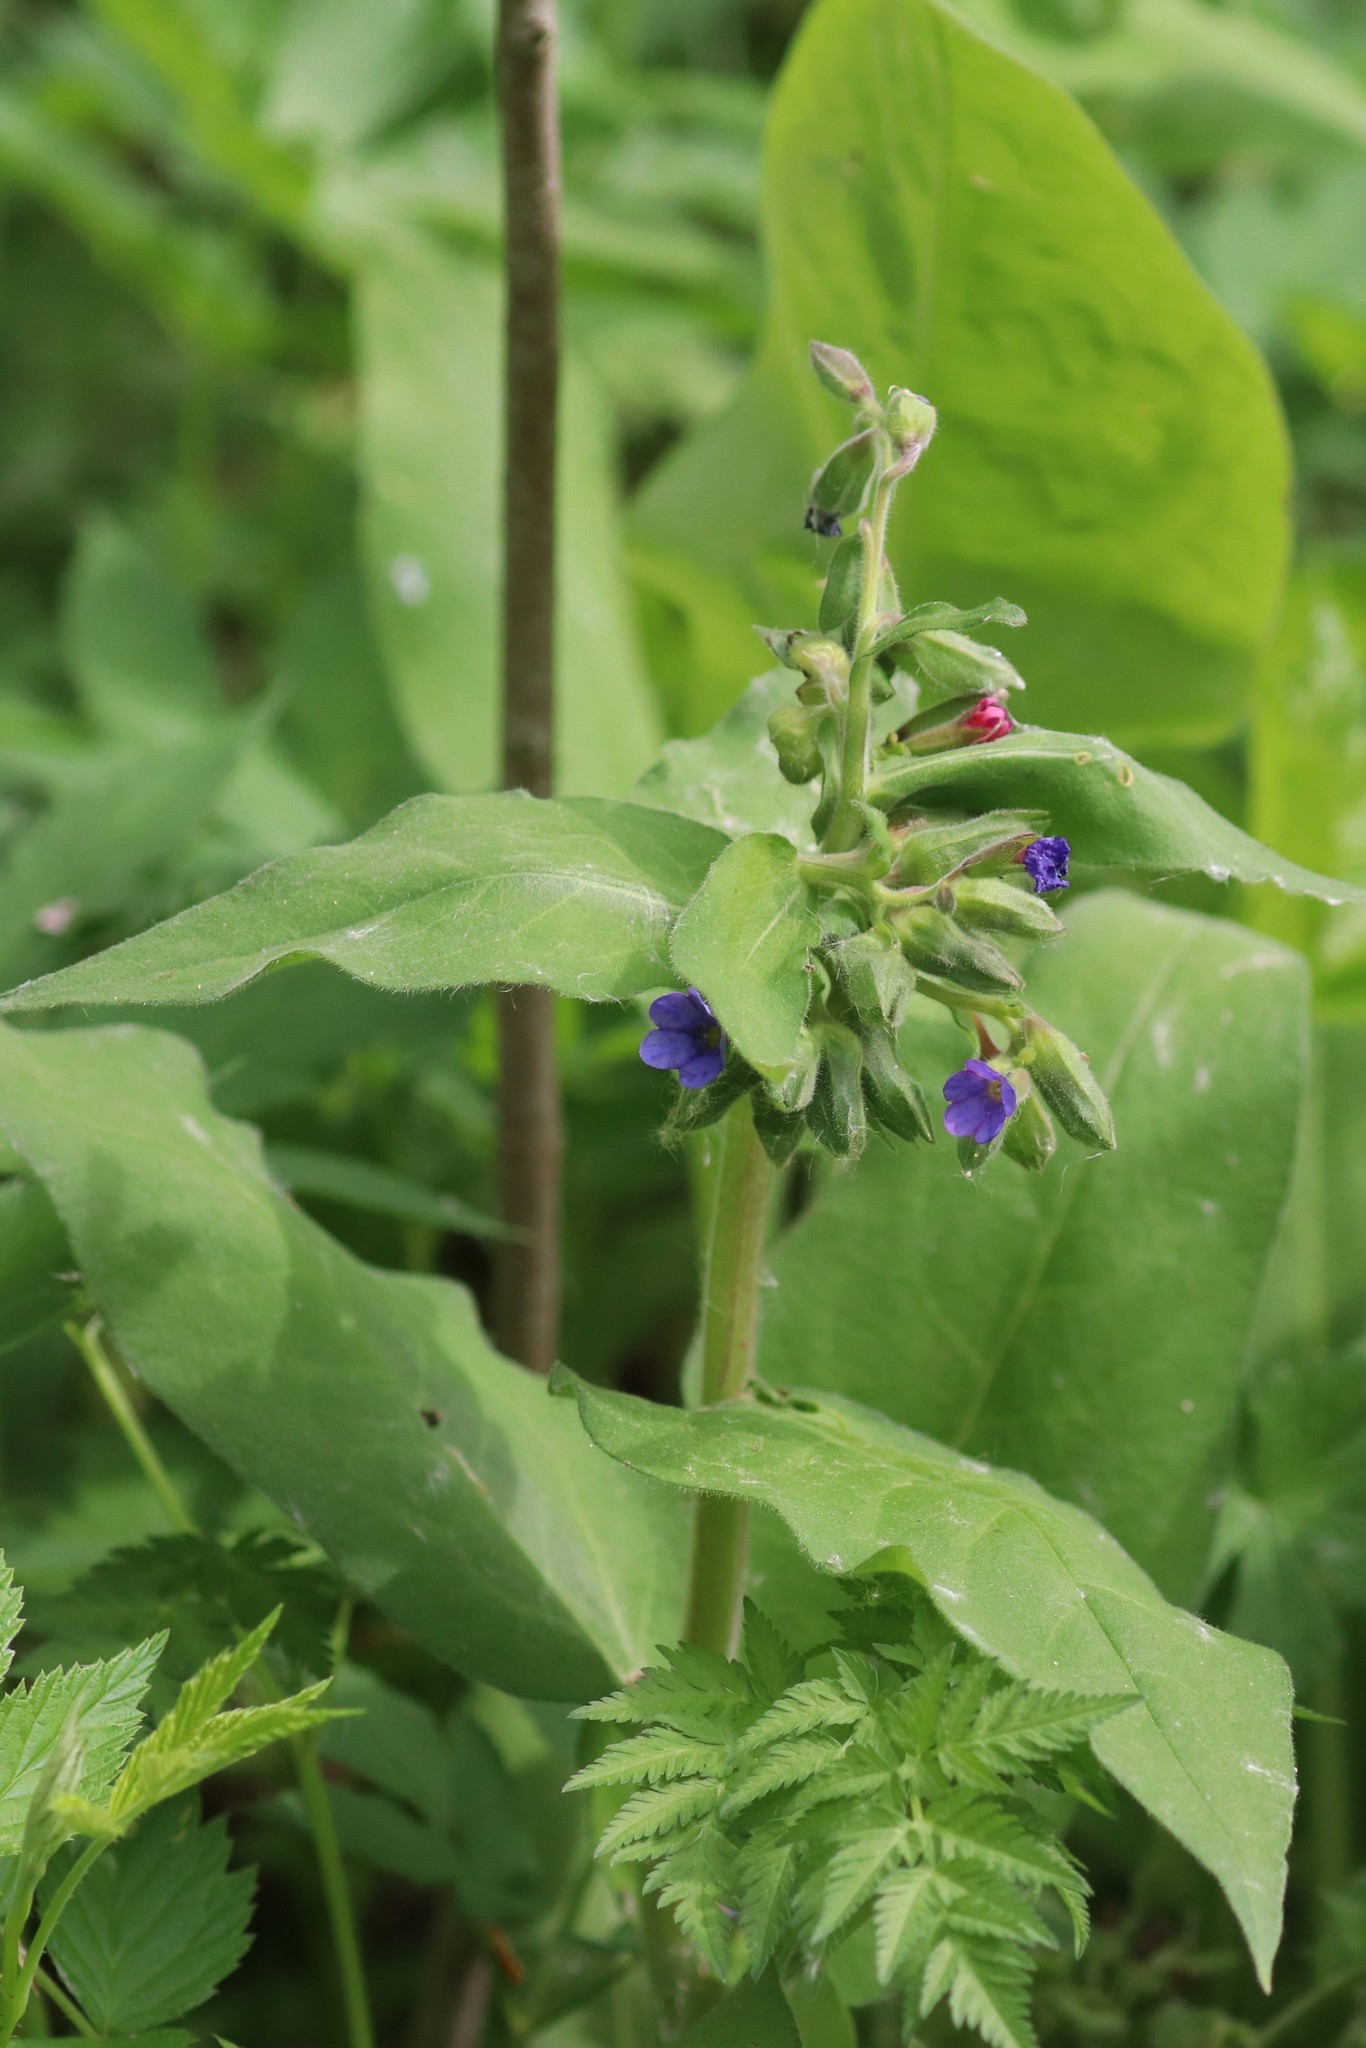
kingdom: Plantae
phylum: Tracheophyta
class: Magnoliopsida
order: Boraginales
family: Boraginaceae
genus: Pulmonaria
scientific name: Pulmonaria mollis
